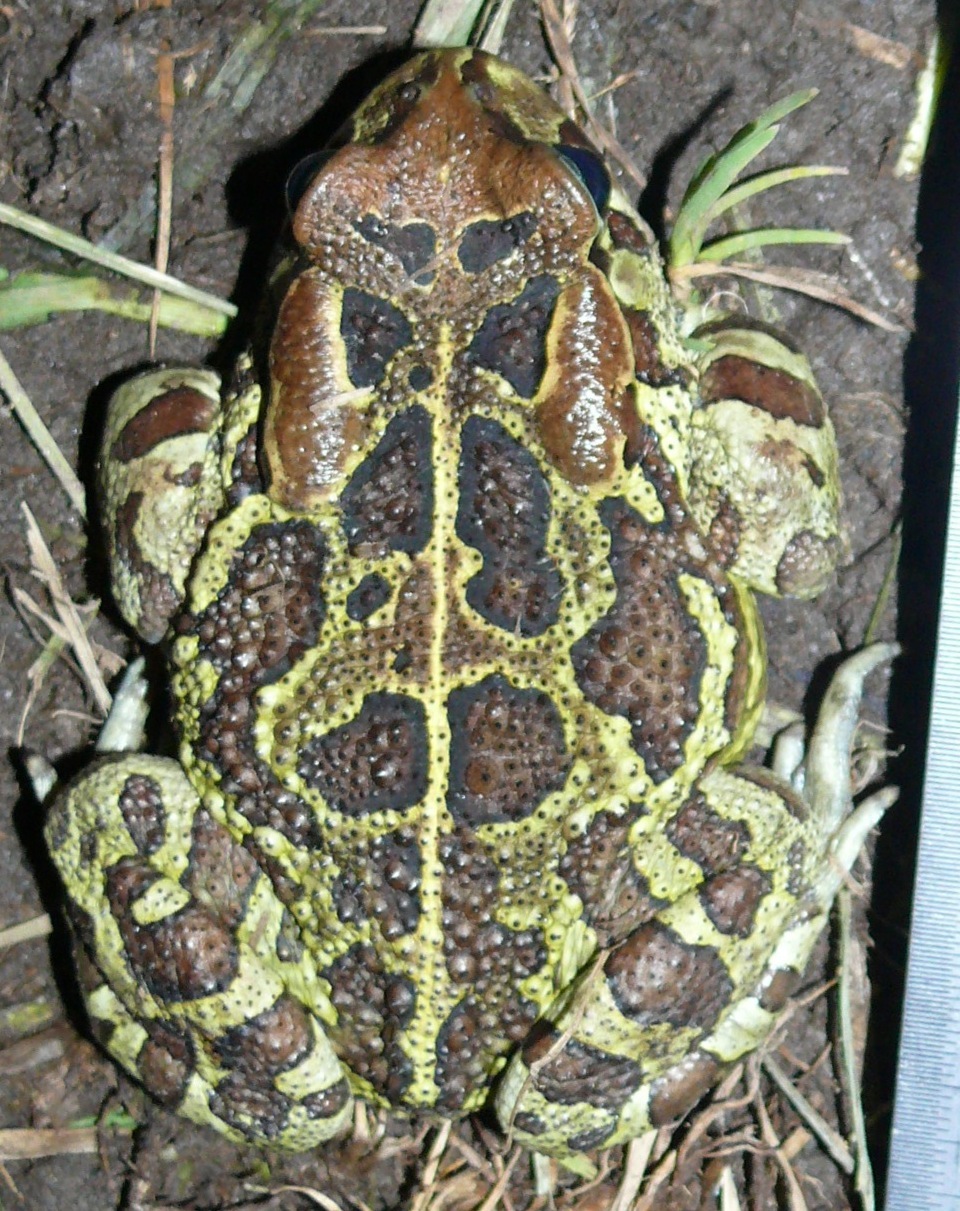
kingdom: Animalia
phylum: Chordata
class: Amphibia
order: Anura
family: Bufonidae
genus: Sclerophrys
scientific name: Sclerophrys pantherina
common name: Panther toad
